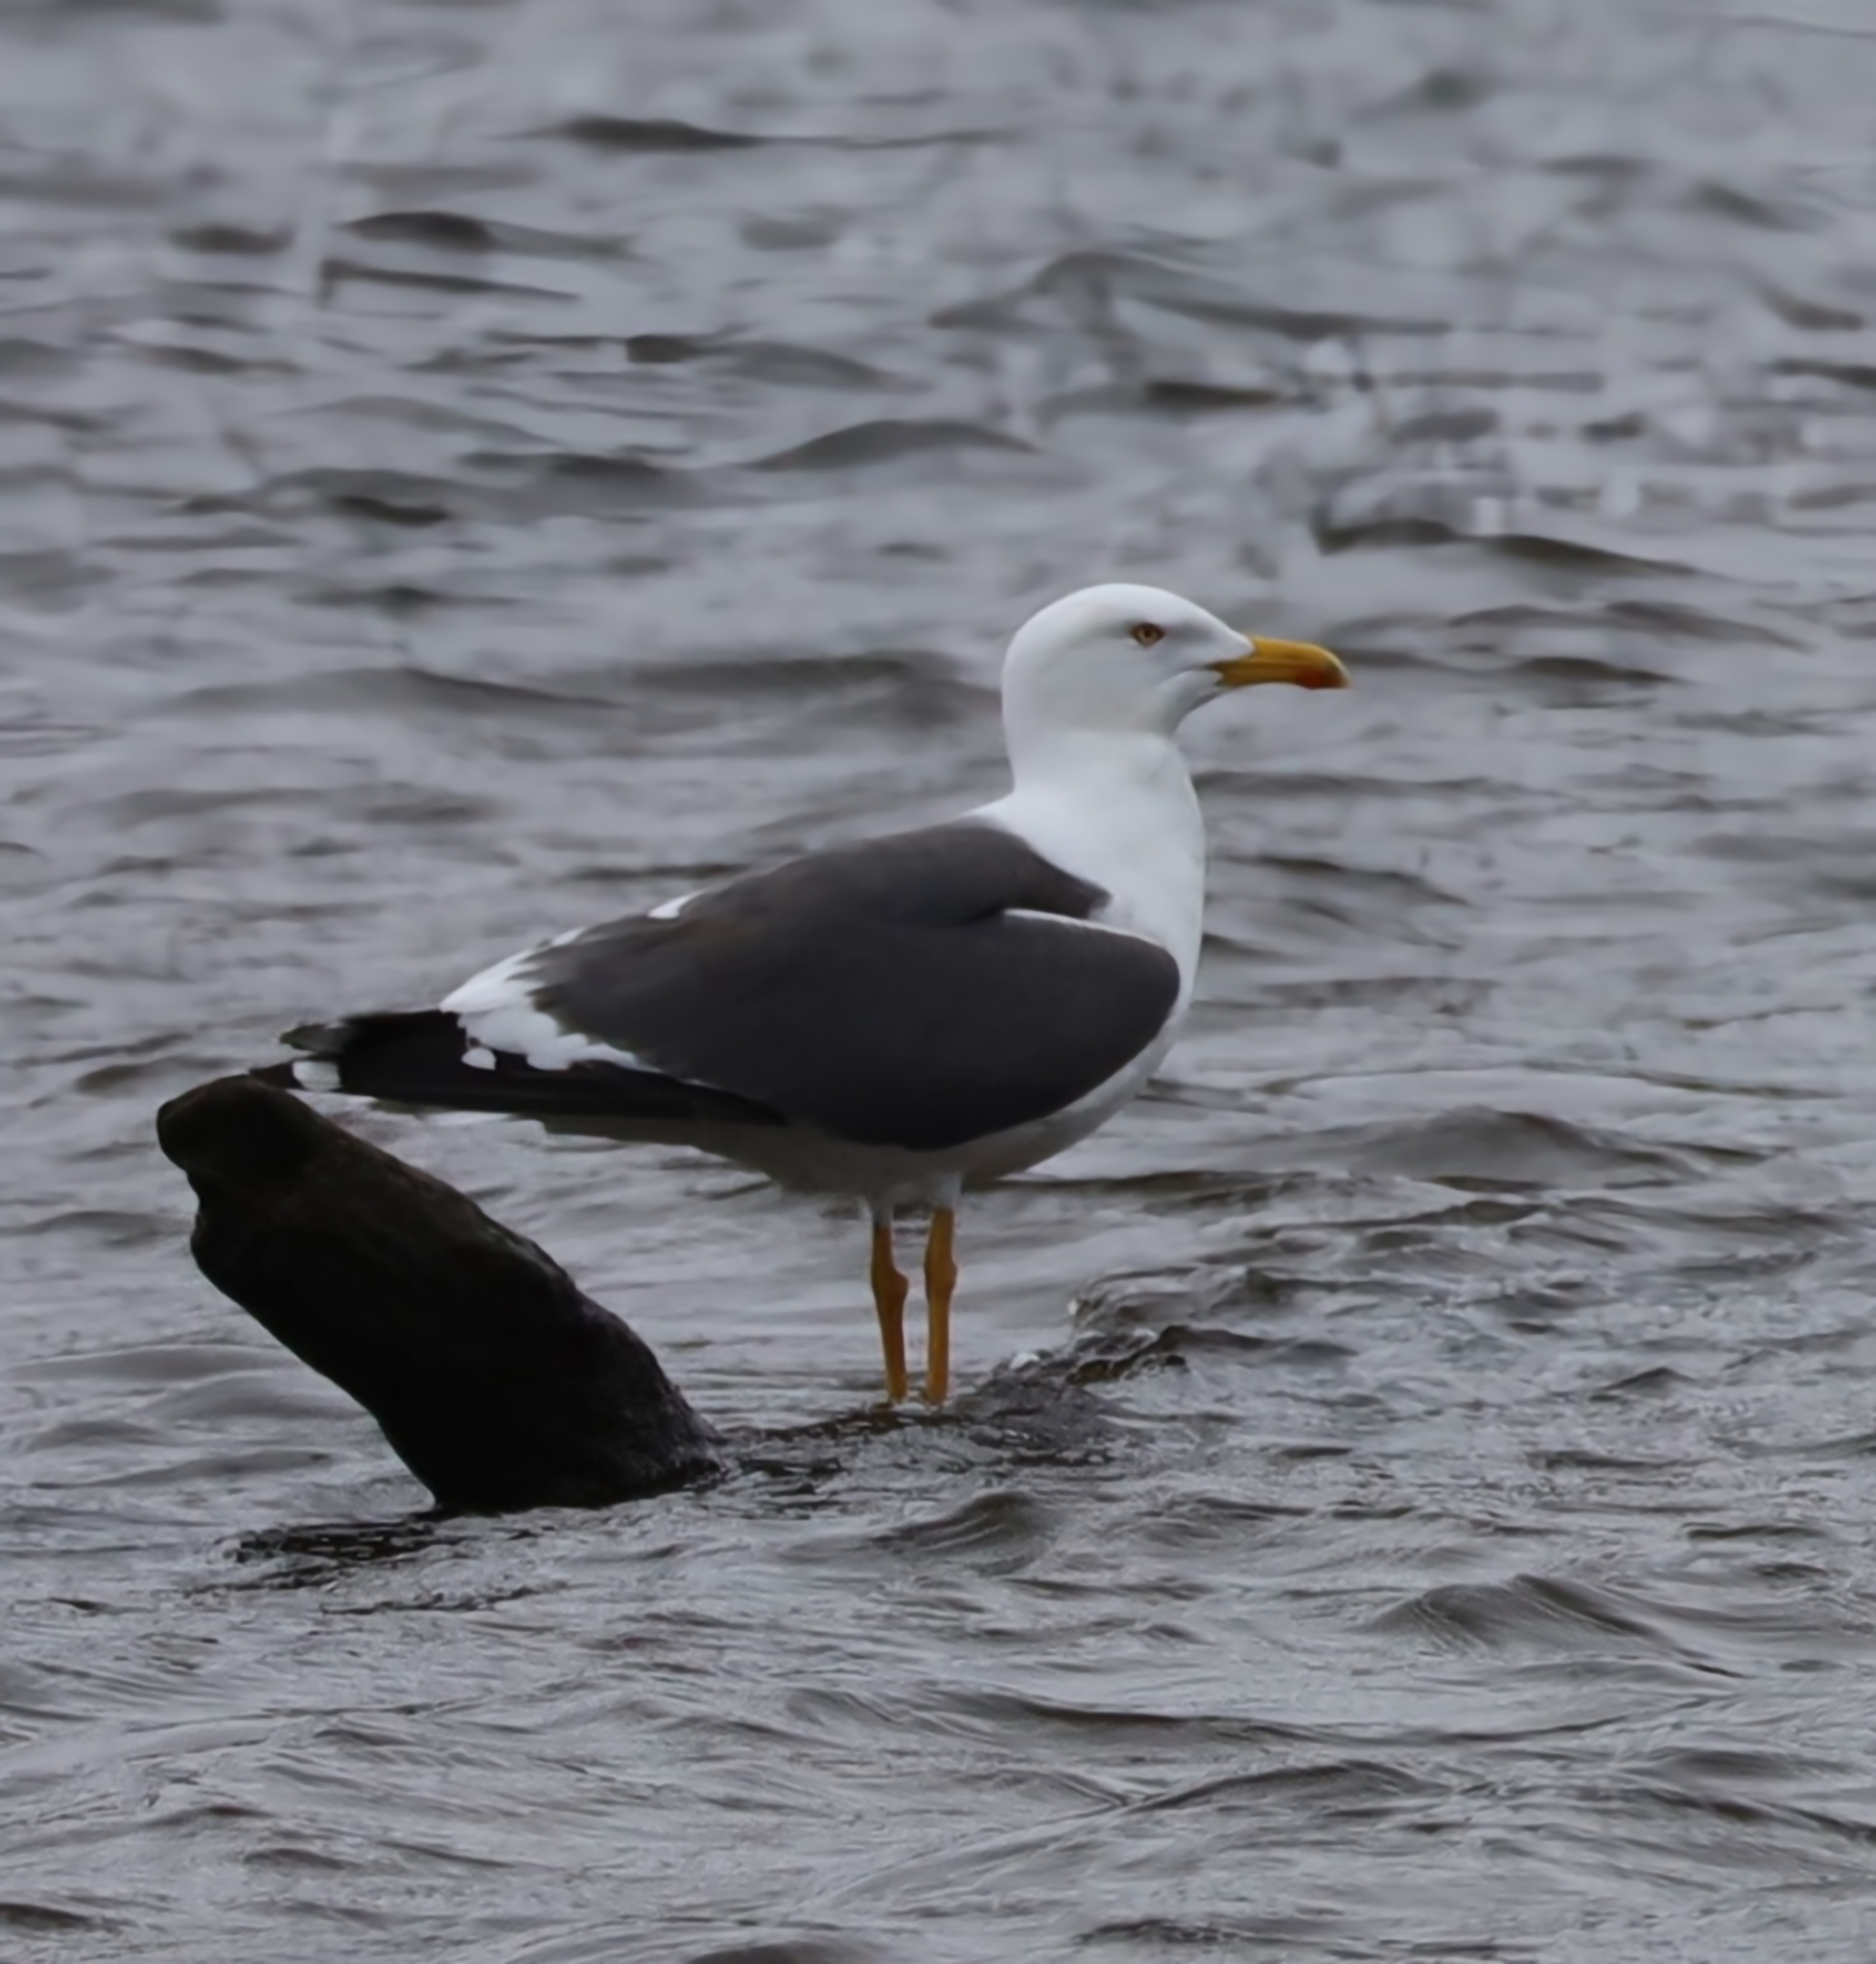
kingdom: Animalia
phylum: Chordata
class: Aves
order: Charadriiformes
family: Laridae
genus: Larus
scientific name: Larus fuscus
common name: Lesser black-backed gull
